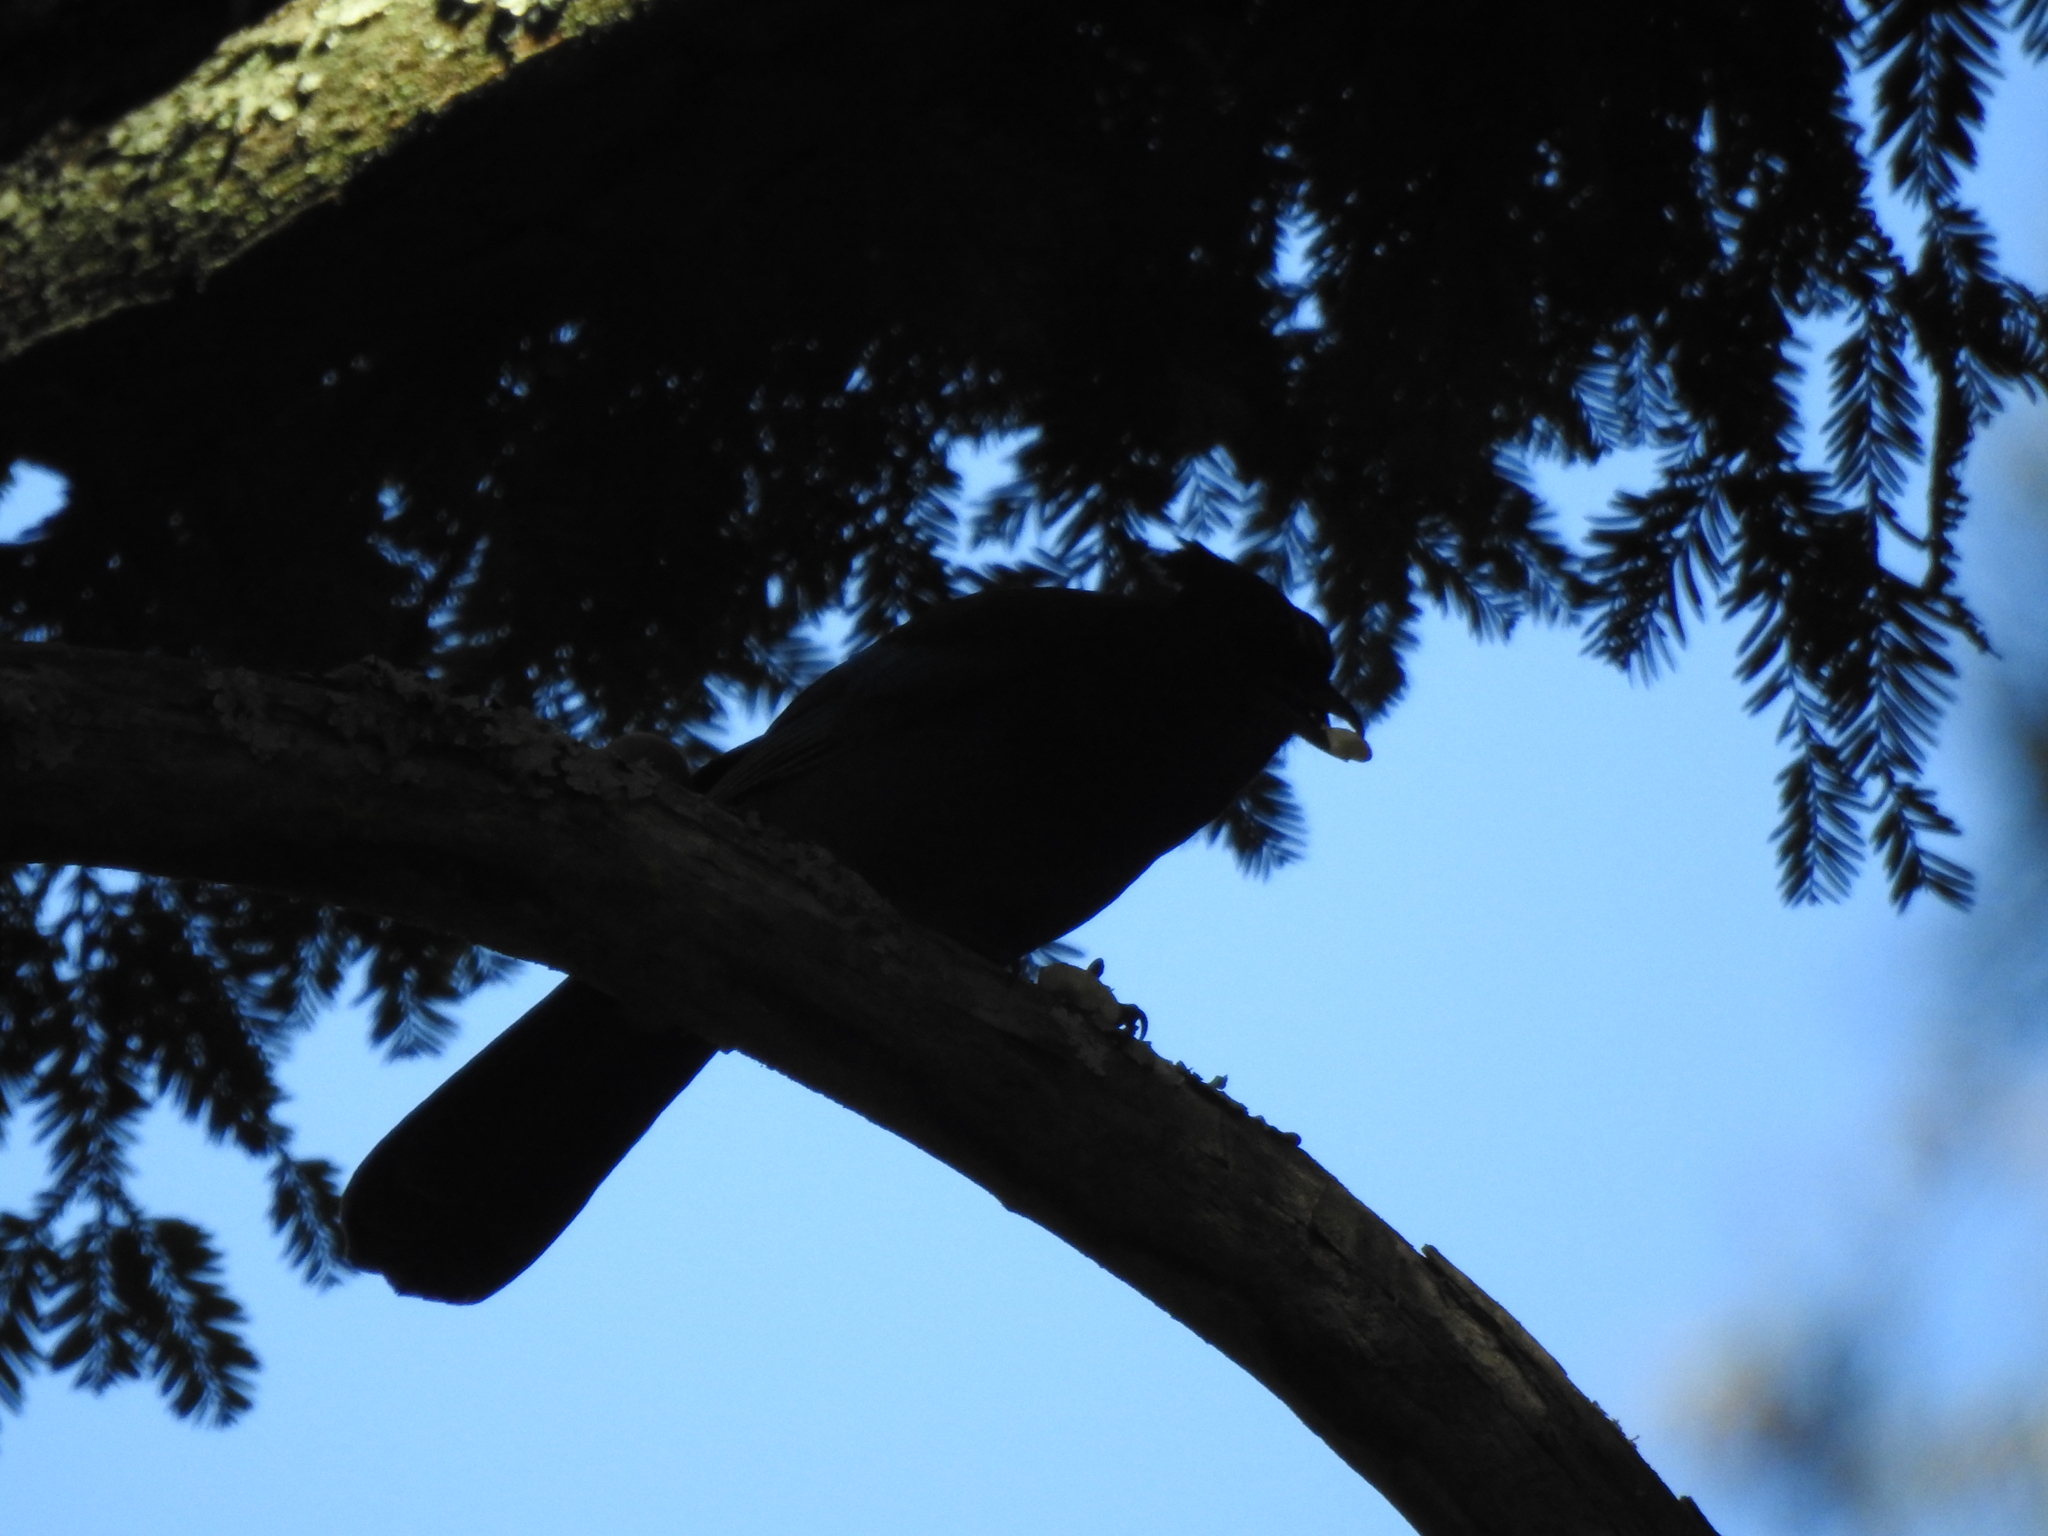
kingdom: Animalia
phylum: Chordata
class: Aves
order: Passeriformes
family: Corvidae
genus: Cyanocitta
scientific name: Cyanocitta stelleri
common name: Steller's jay
